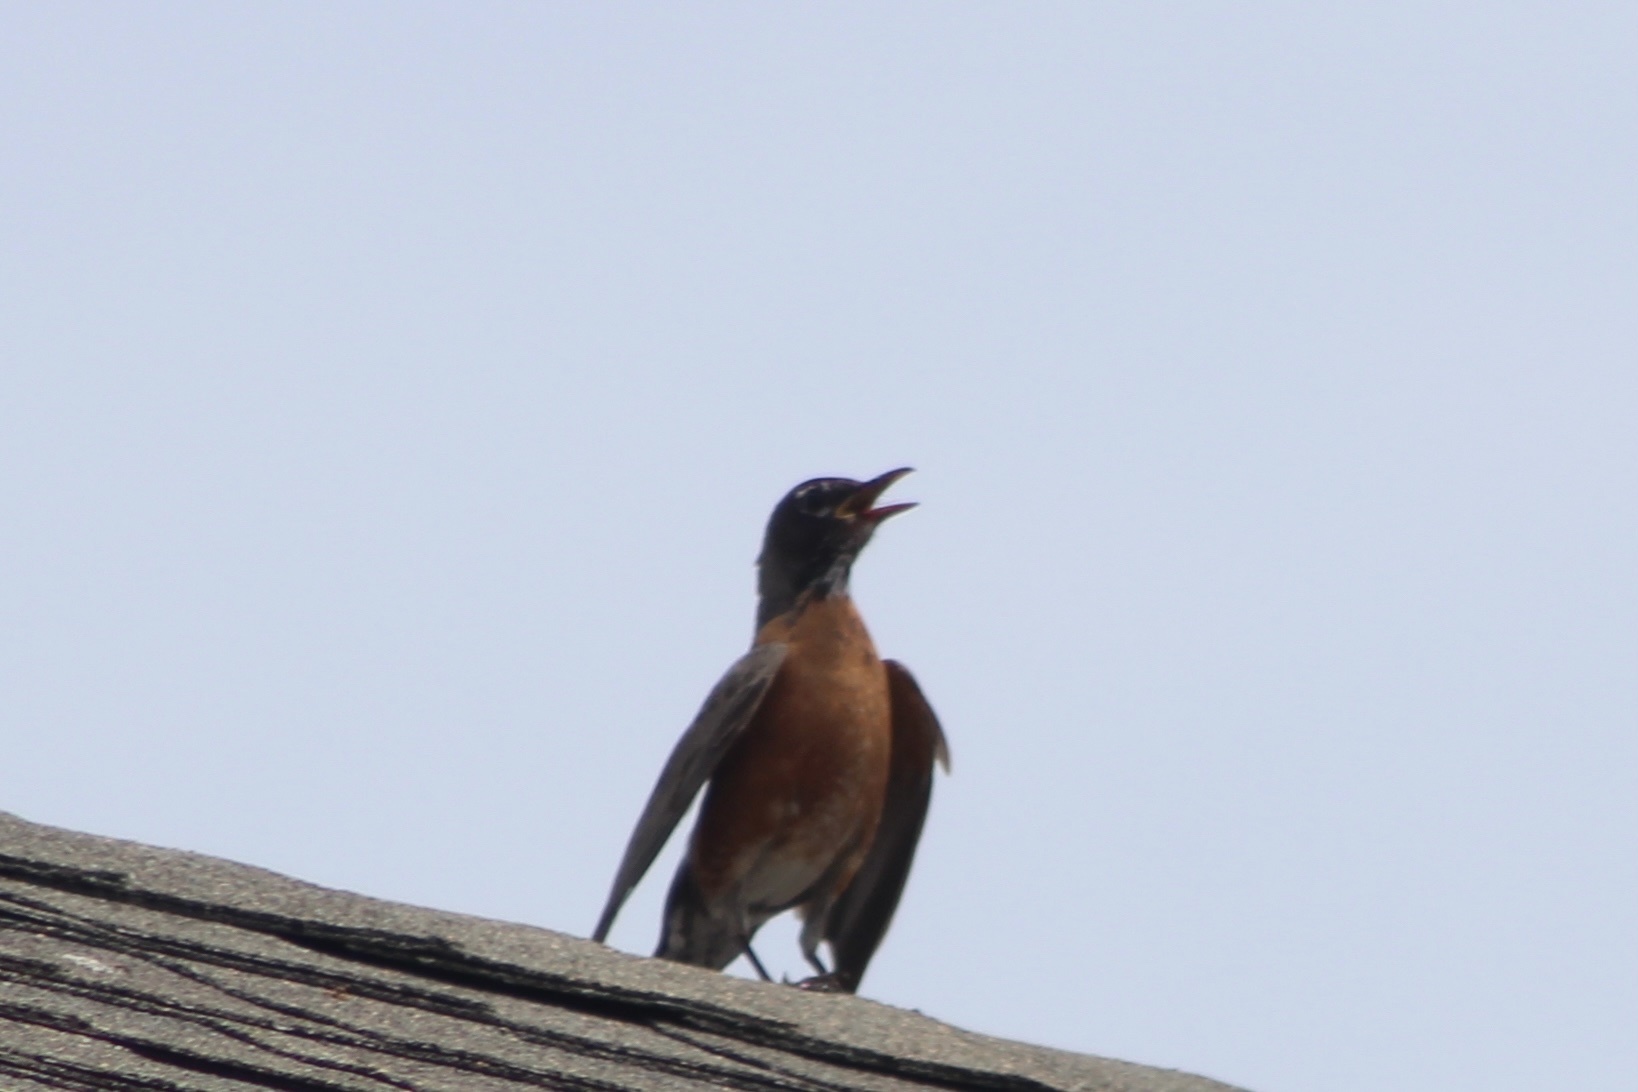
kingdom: Animalia
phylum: Chordata
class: Aves
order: Passeriformes
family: Turdidae
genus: Turdus
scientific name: Turdus migratorius
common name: American robin
